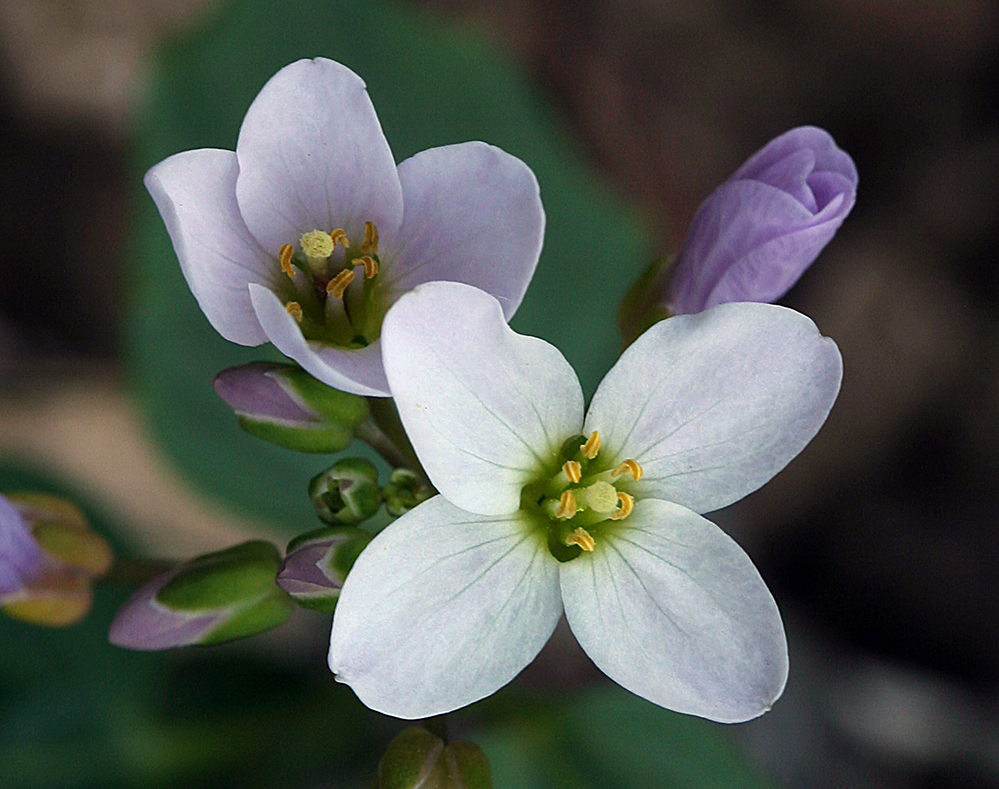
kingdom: Plantae
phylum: Tracheophyta
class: Magnoliopsida
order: Brassicales
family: Brassicaceae
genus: Cardamine
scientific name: Cardamine californica
